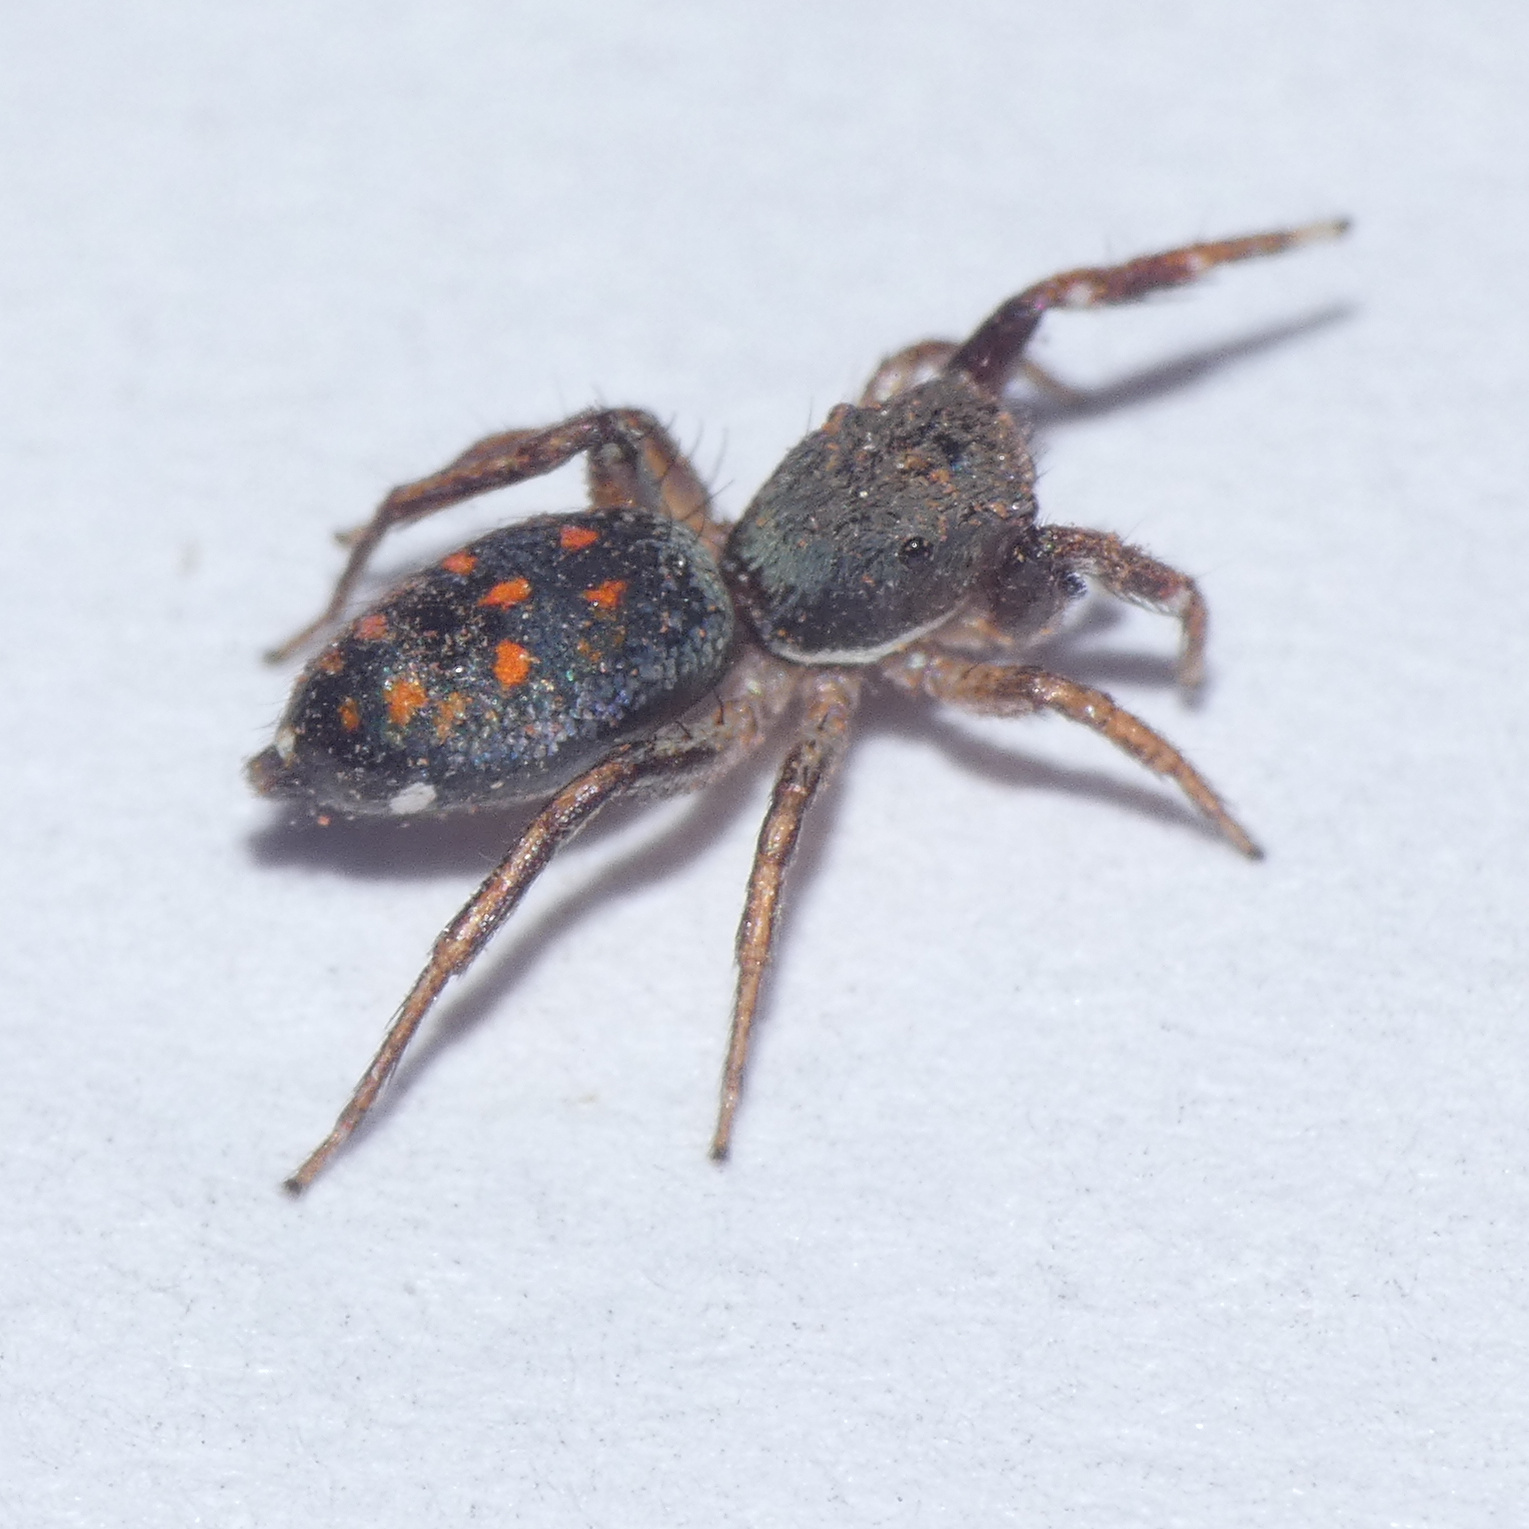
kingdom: Animalia
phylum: Arthropoda
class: Arachnida
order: Araneae
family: Salticidae
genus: Natta
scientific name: Natta horizontalis
